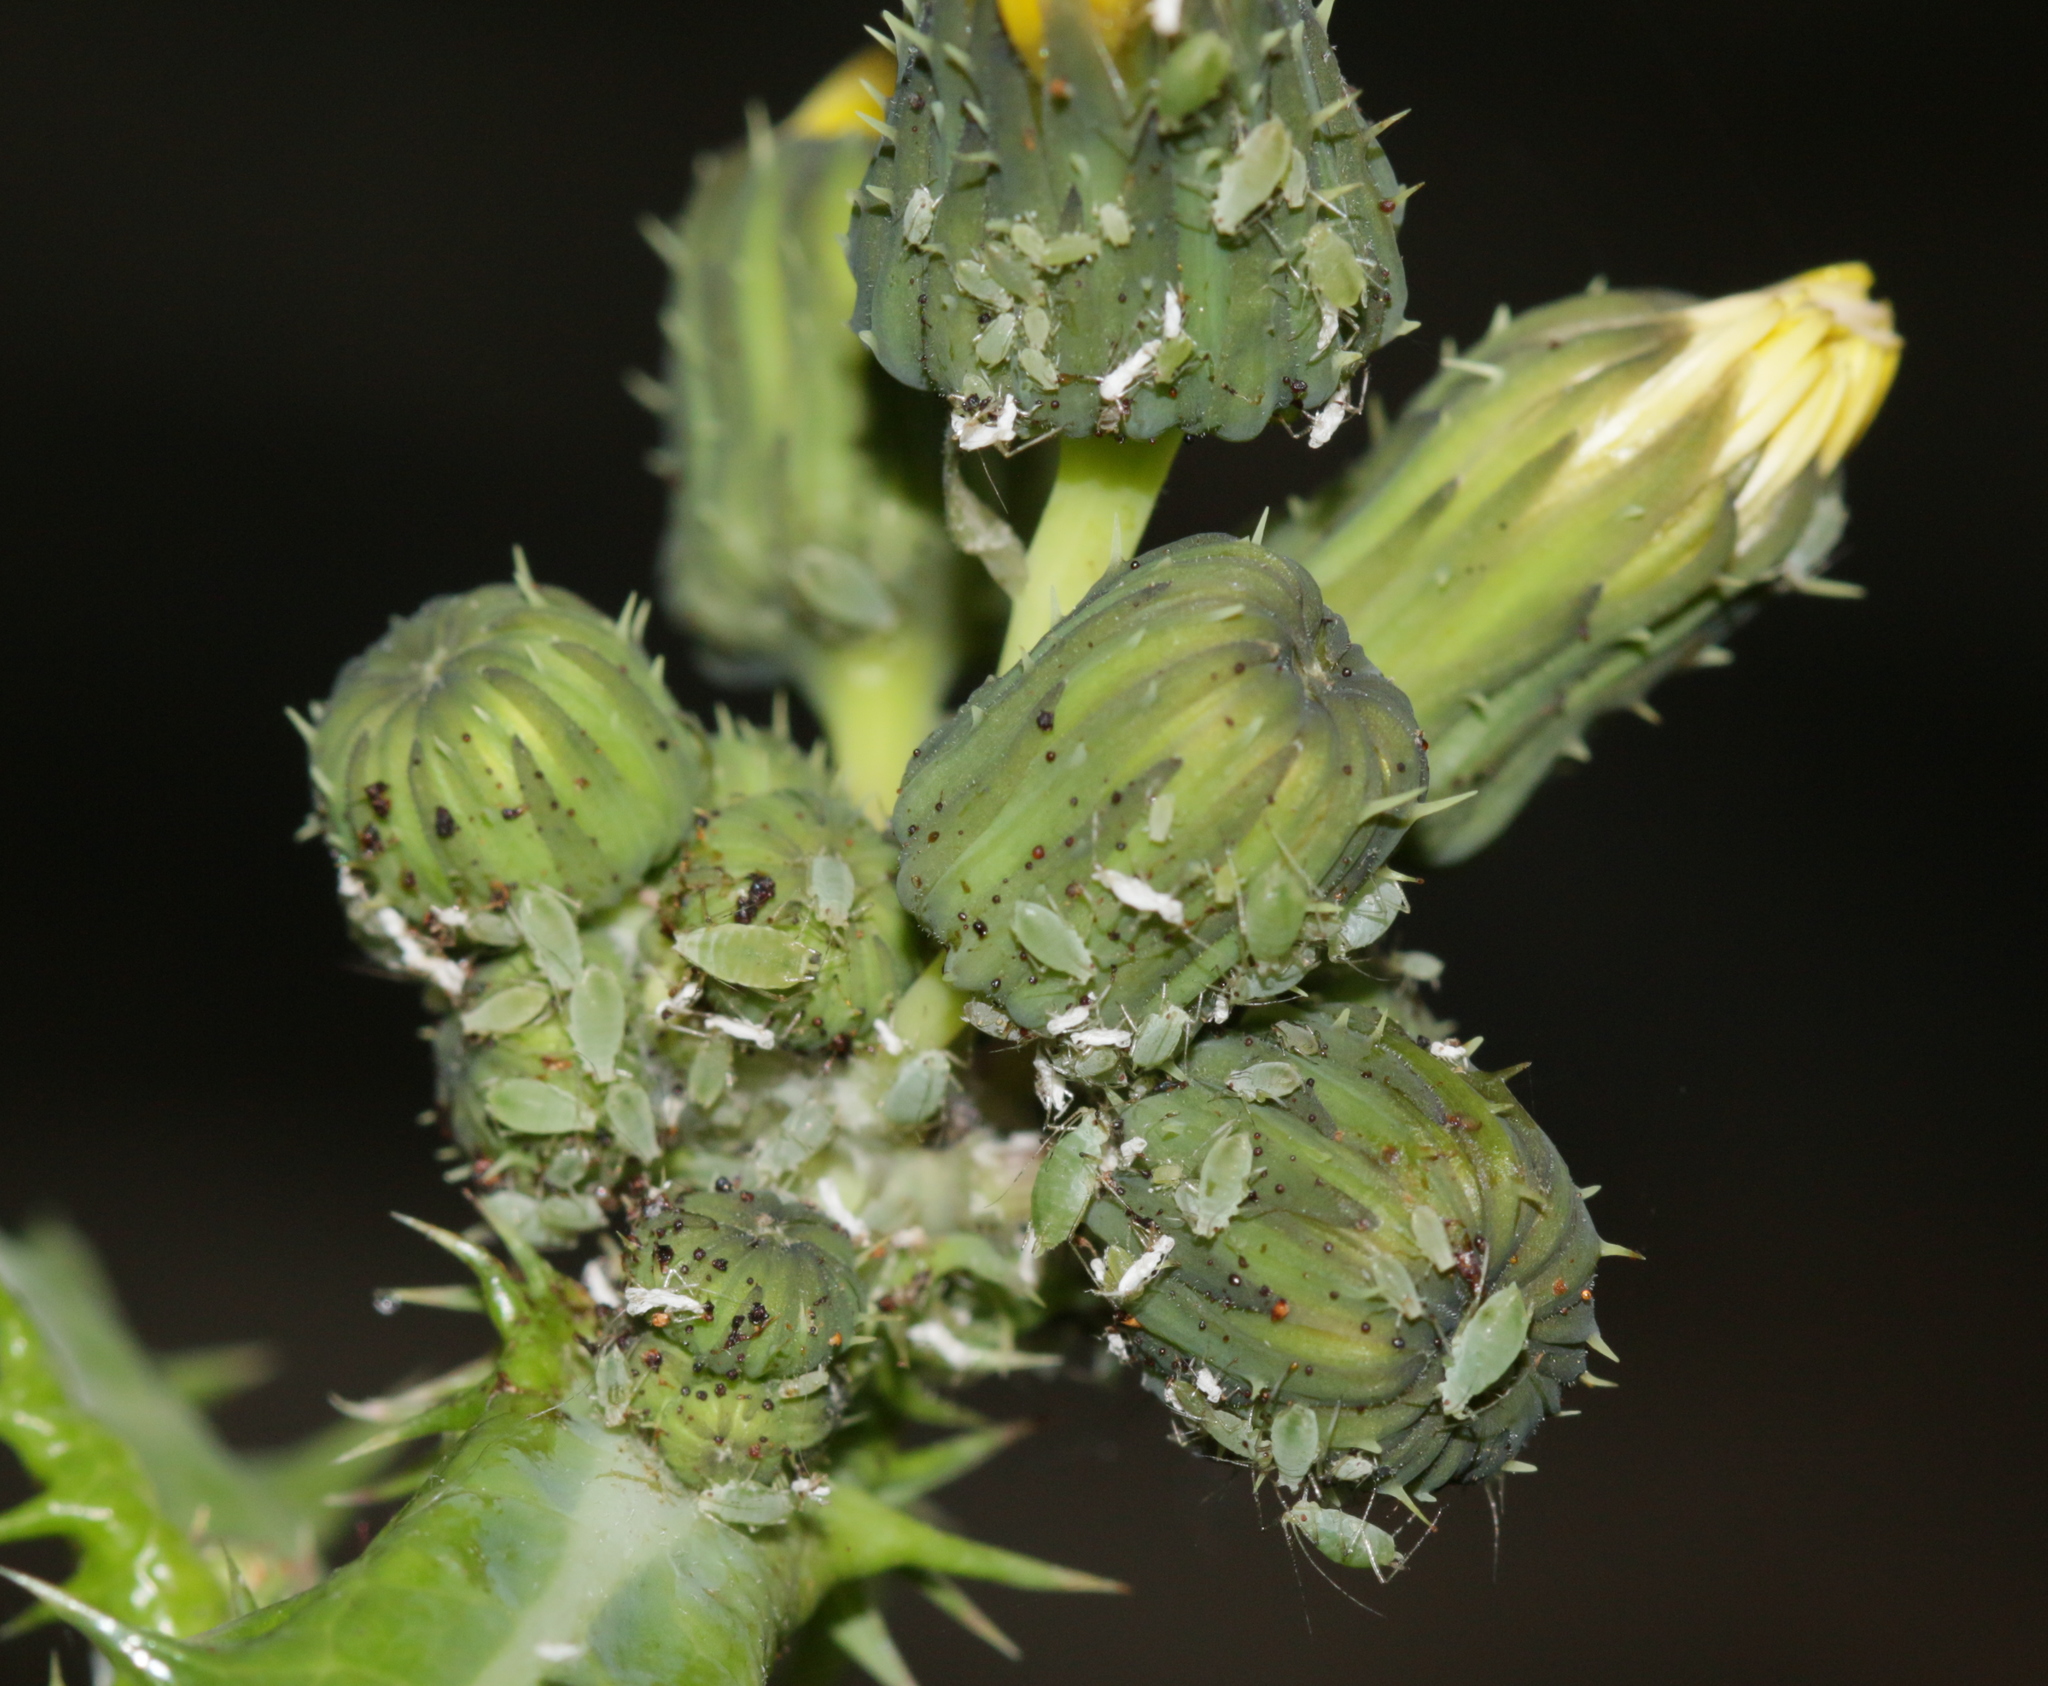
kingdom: Animalia
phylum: Arthropoda
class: Insecta
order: Hemiptera
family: Aphididae
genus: Hyperomyzus
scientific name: Hyperomyzus lactucae
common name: Sow thistle aphid
